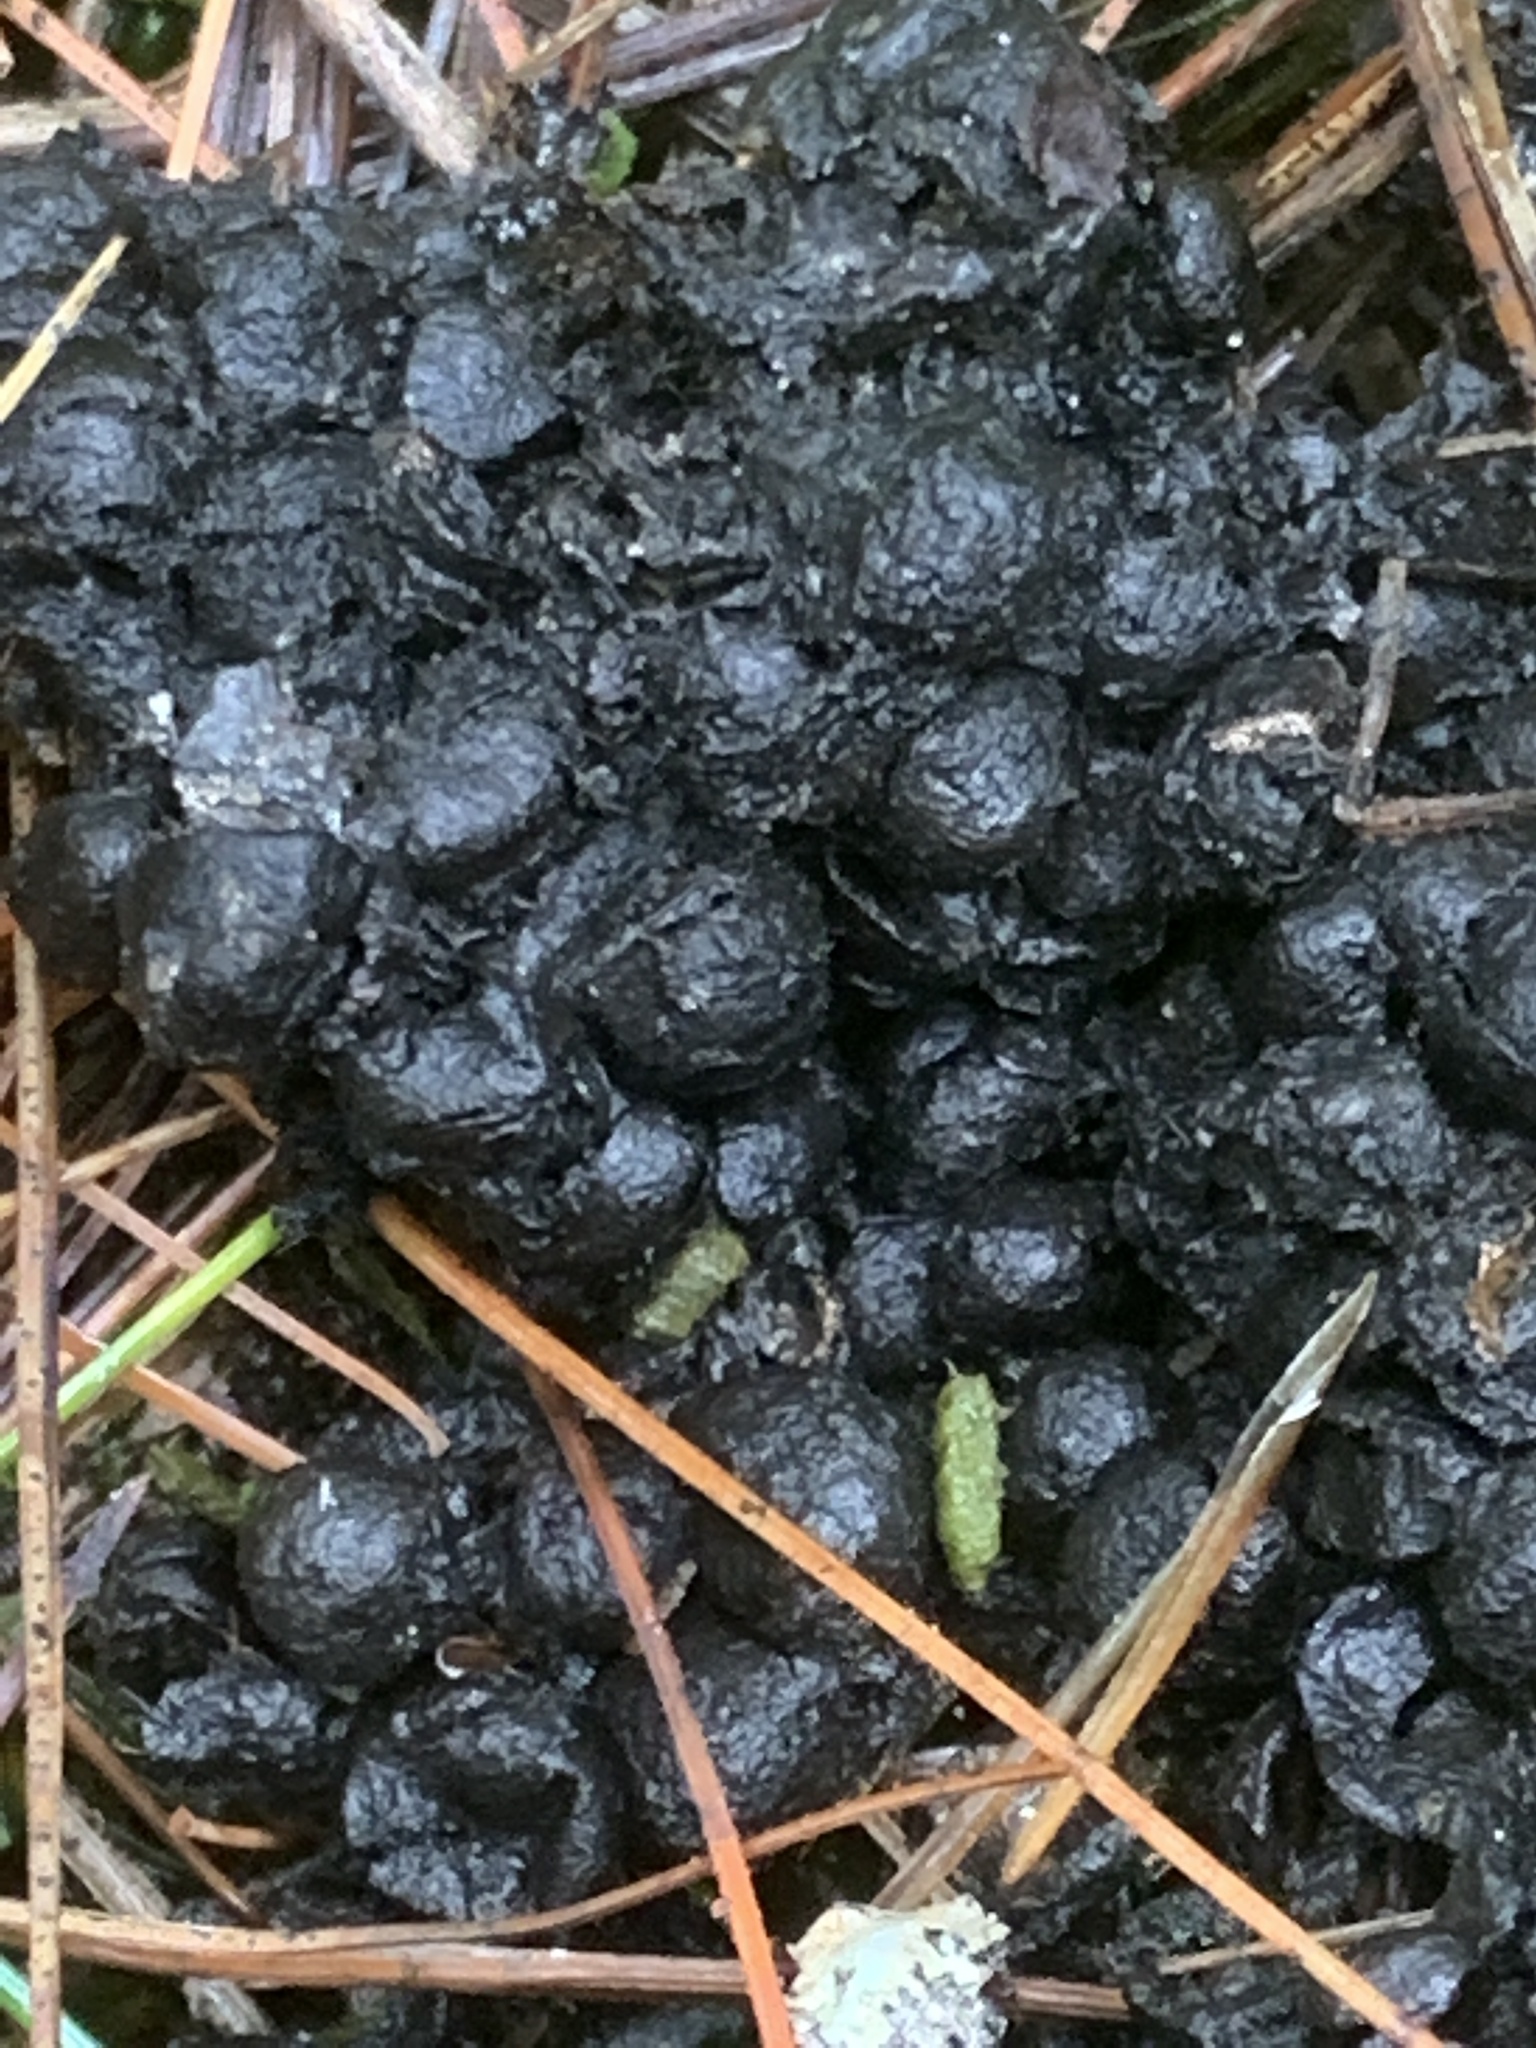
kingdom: Animalia
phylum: Chordata
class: Mammalia
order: Carnivora
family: Ursidae
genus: Ursus
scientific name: Ursus americanus
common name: American black bear
